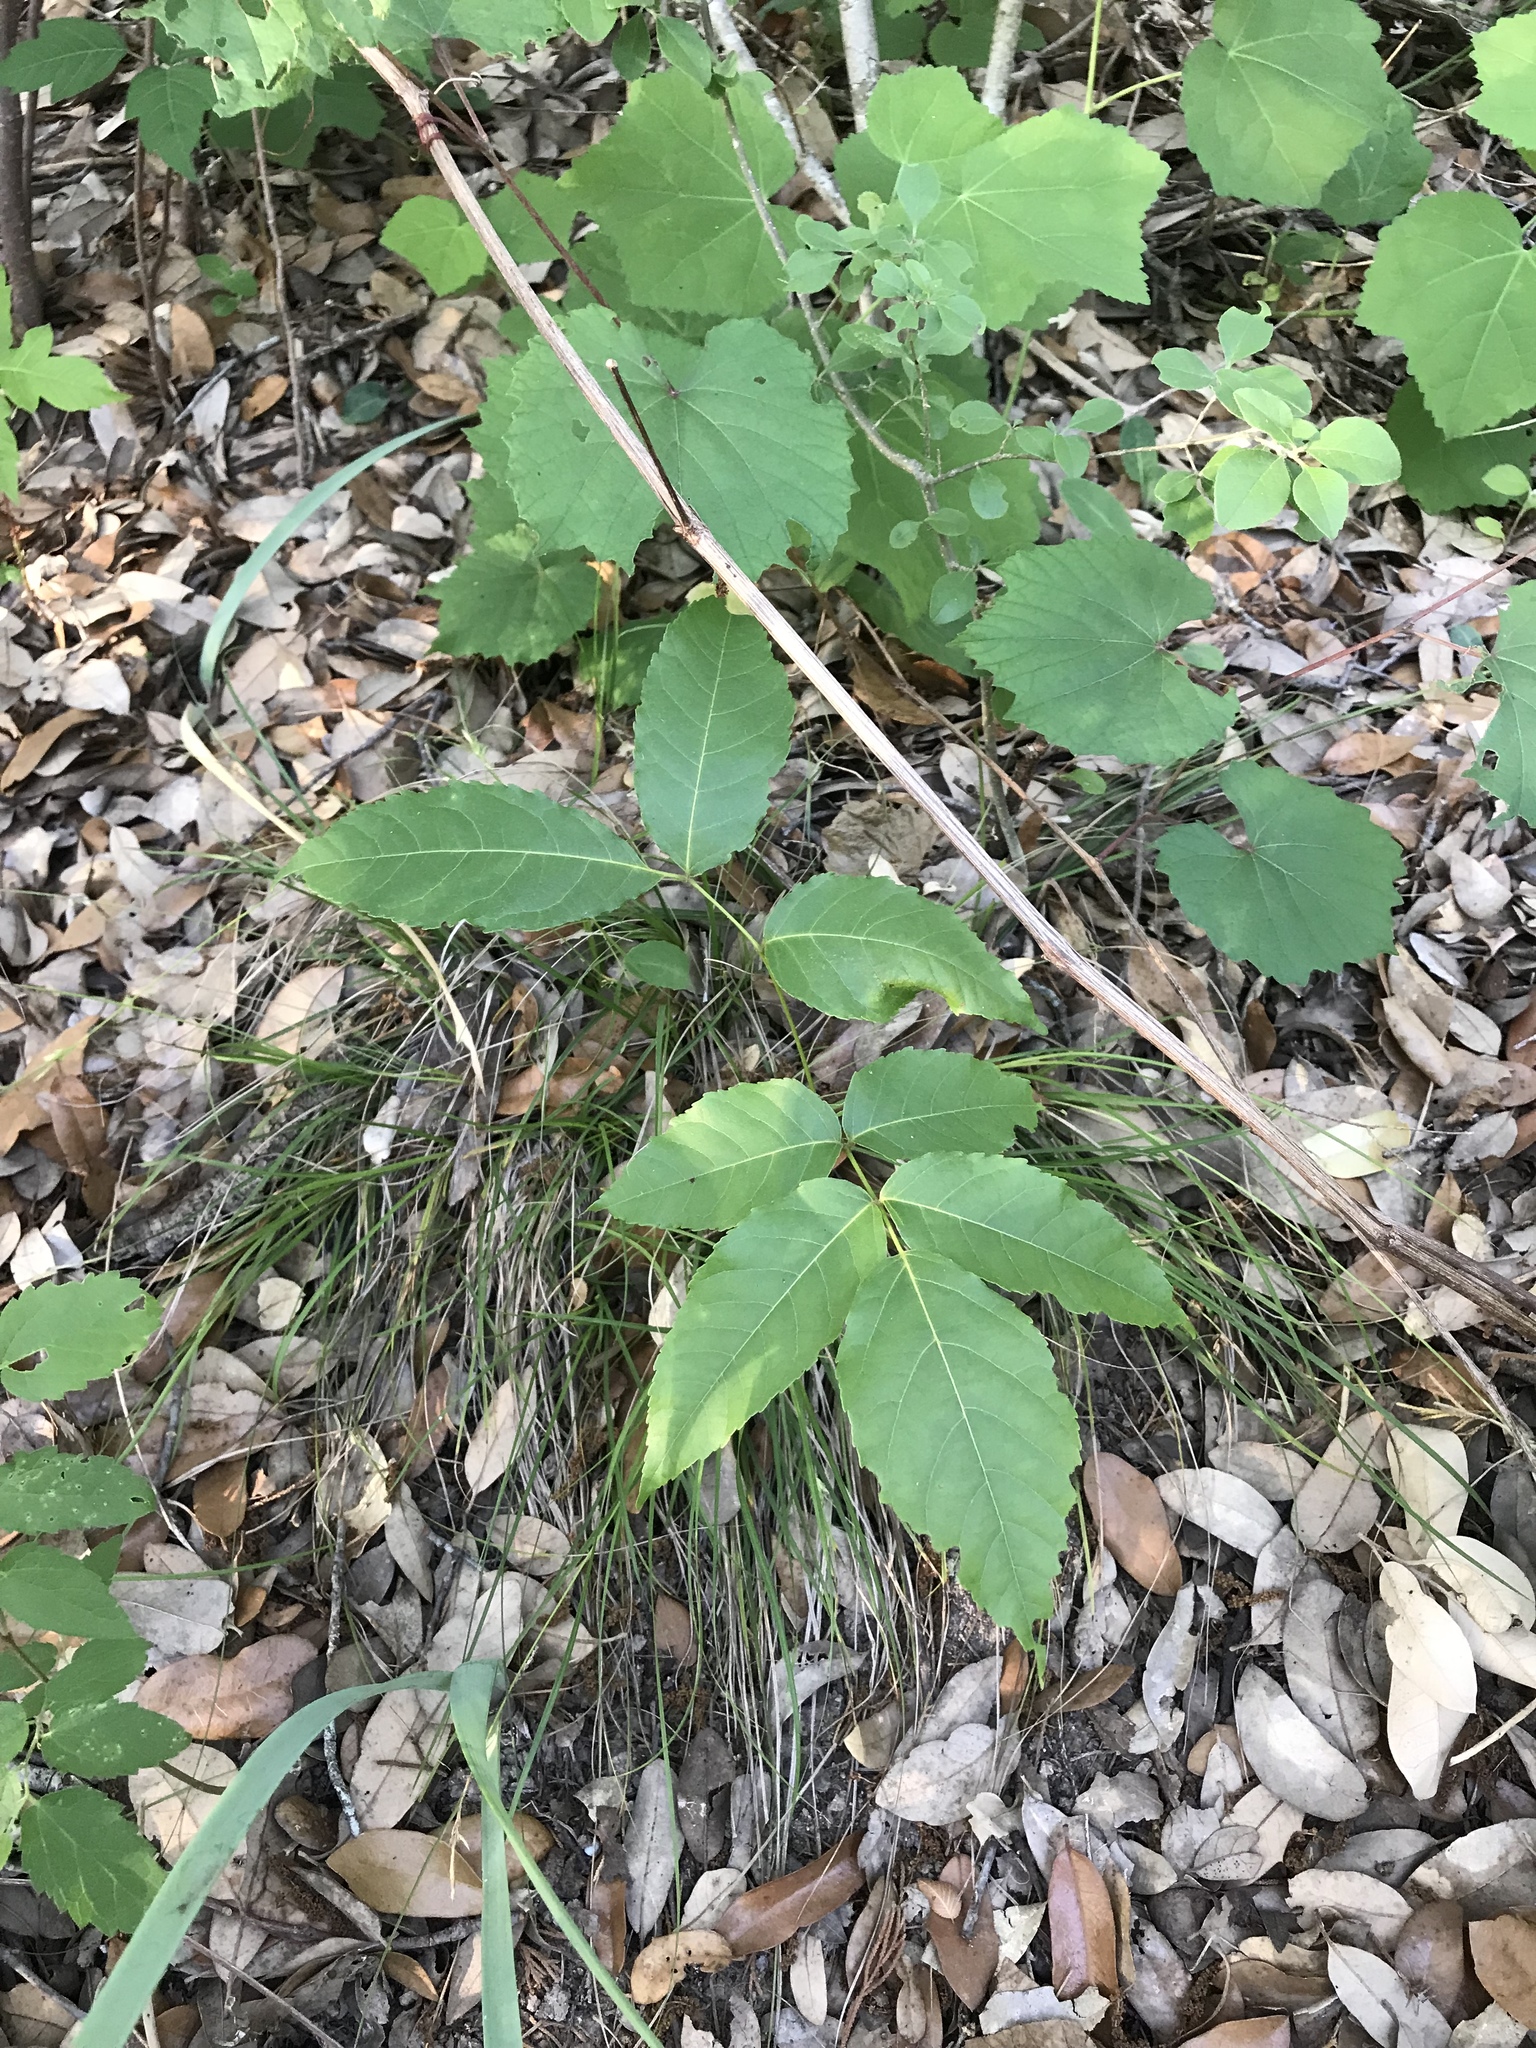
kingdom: Plantae
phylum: Tracheophyta
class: Magnoliopsida
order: Sapindales
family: Sapindaceae
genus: Ungnadia
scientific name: Ungnadia speciosa
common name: Texas-buckeye
